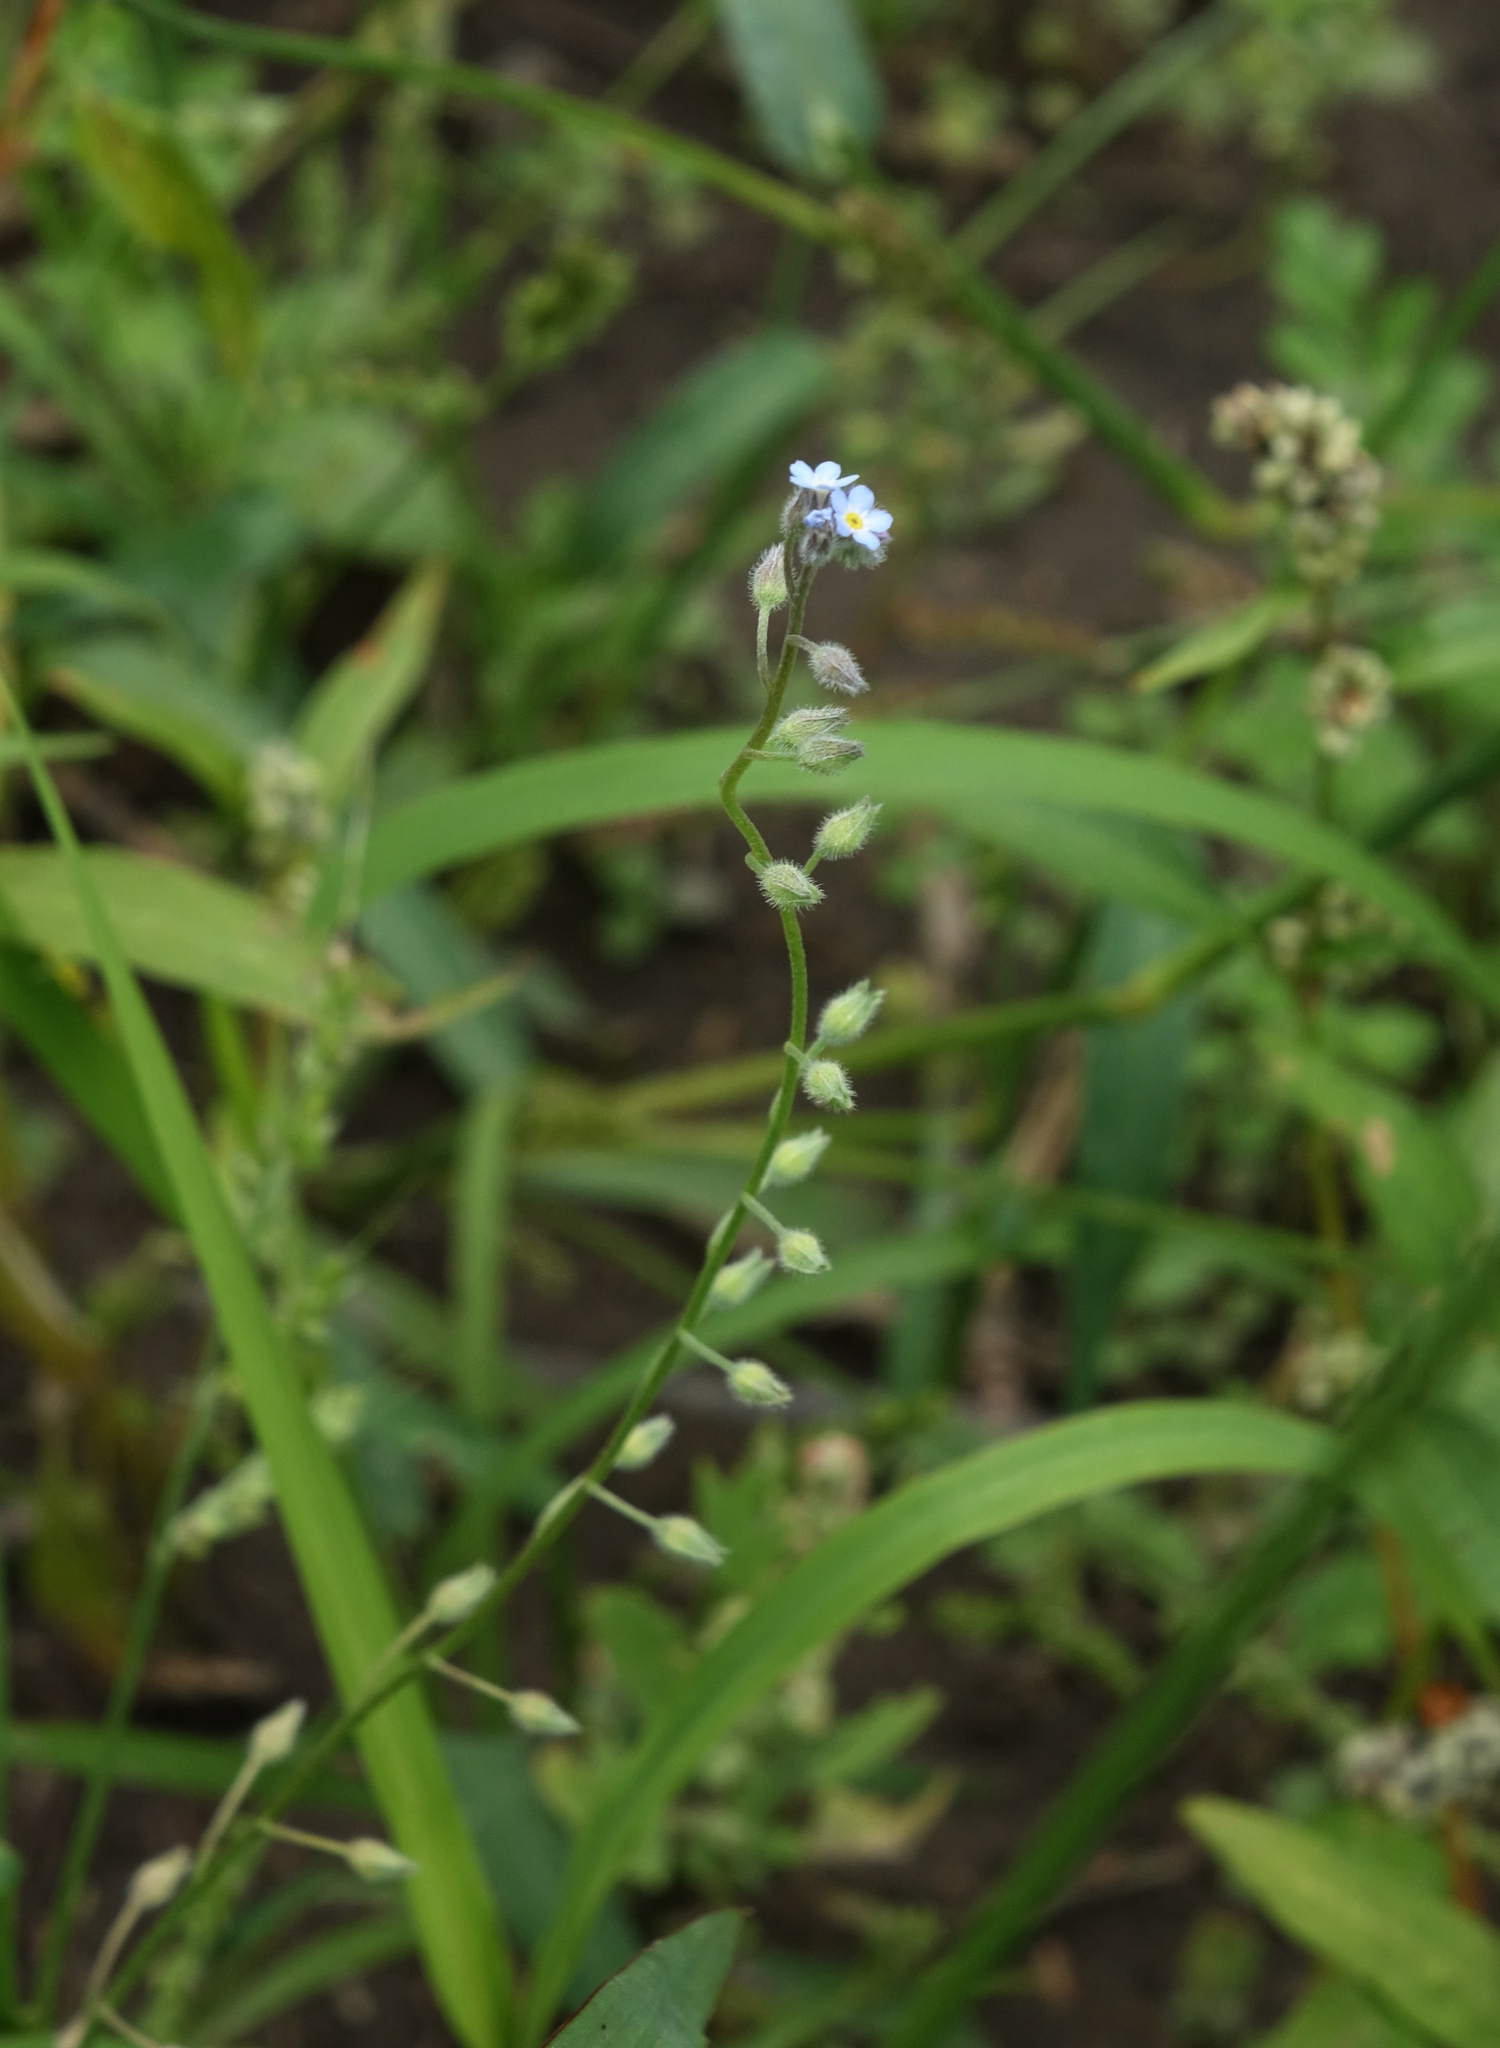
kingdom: Plantae
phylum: Tracheophyta
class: Magnoliopsida
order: Boraginales
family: Boraginaceae
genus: Myosotis
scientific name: Myosotis arvensis
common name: Field forget-me-not
